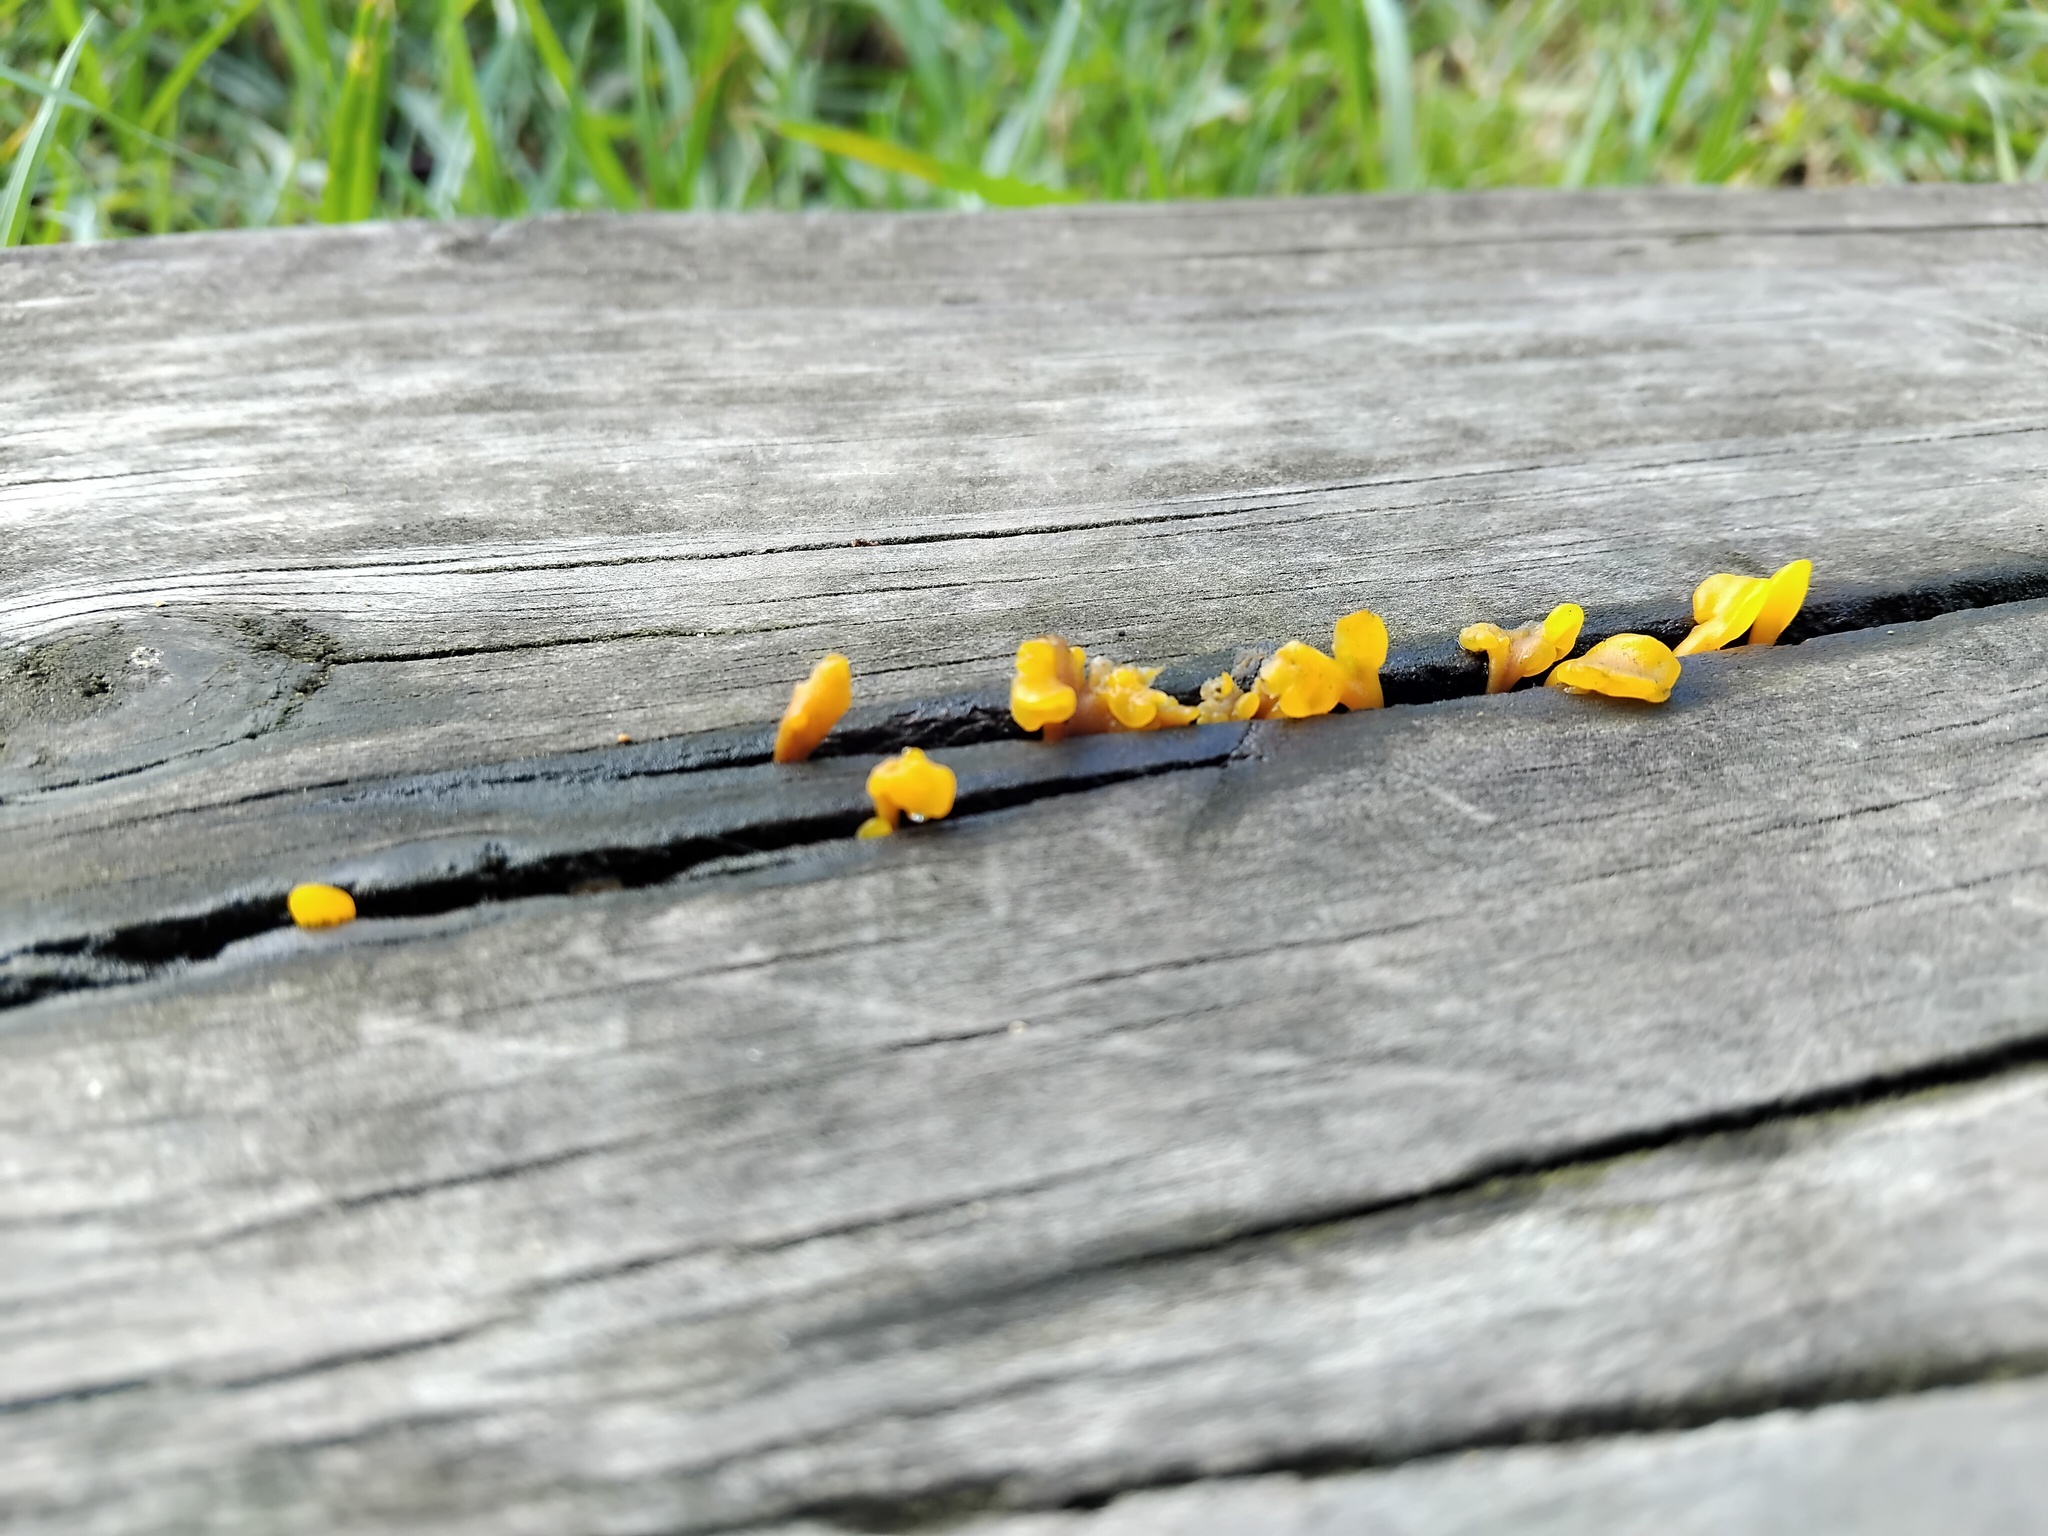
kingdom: Fungi
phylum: Basidiomycota
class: Dacrymycetes
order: Dacrymycetales
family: Dacrymycetaceae
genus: Dacrymyces
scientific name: Dacrymyces spathularius
